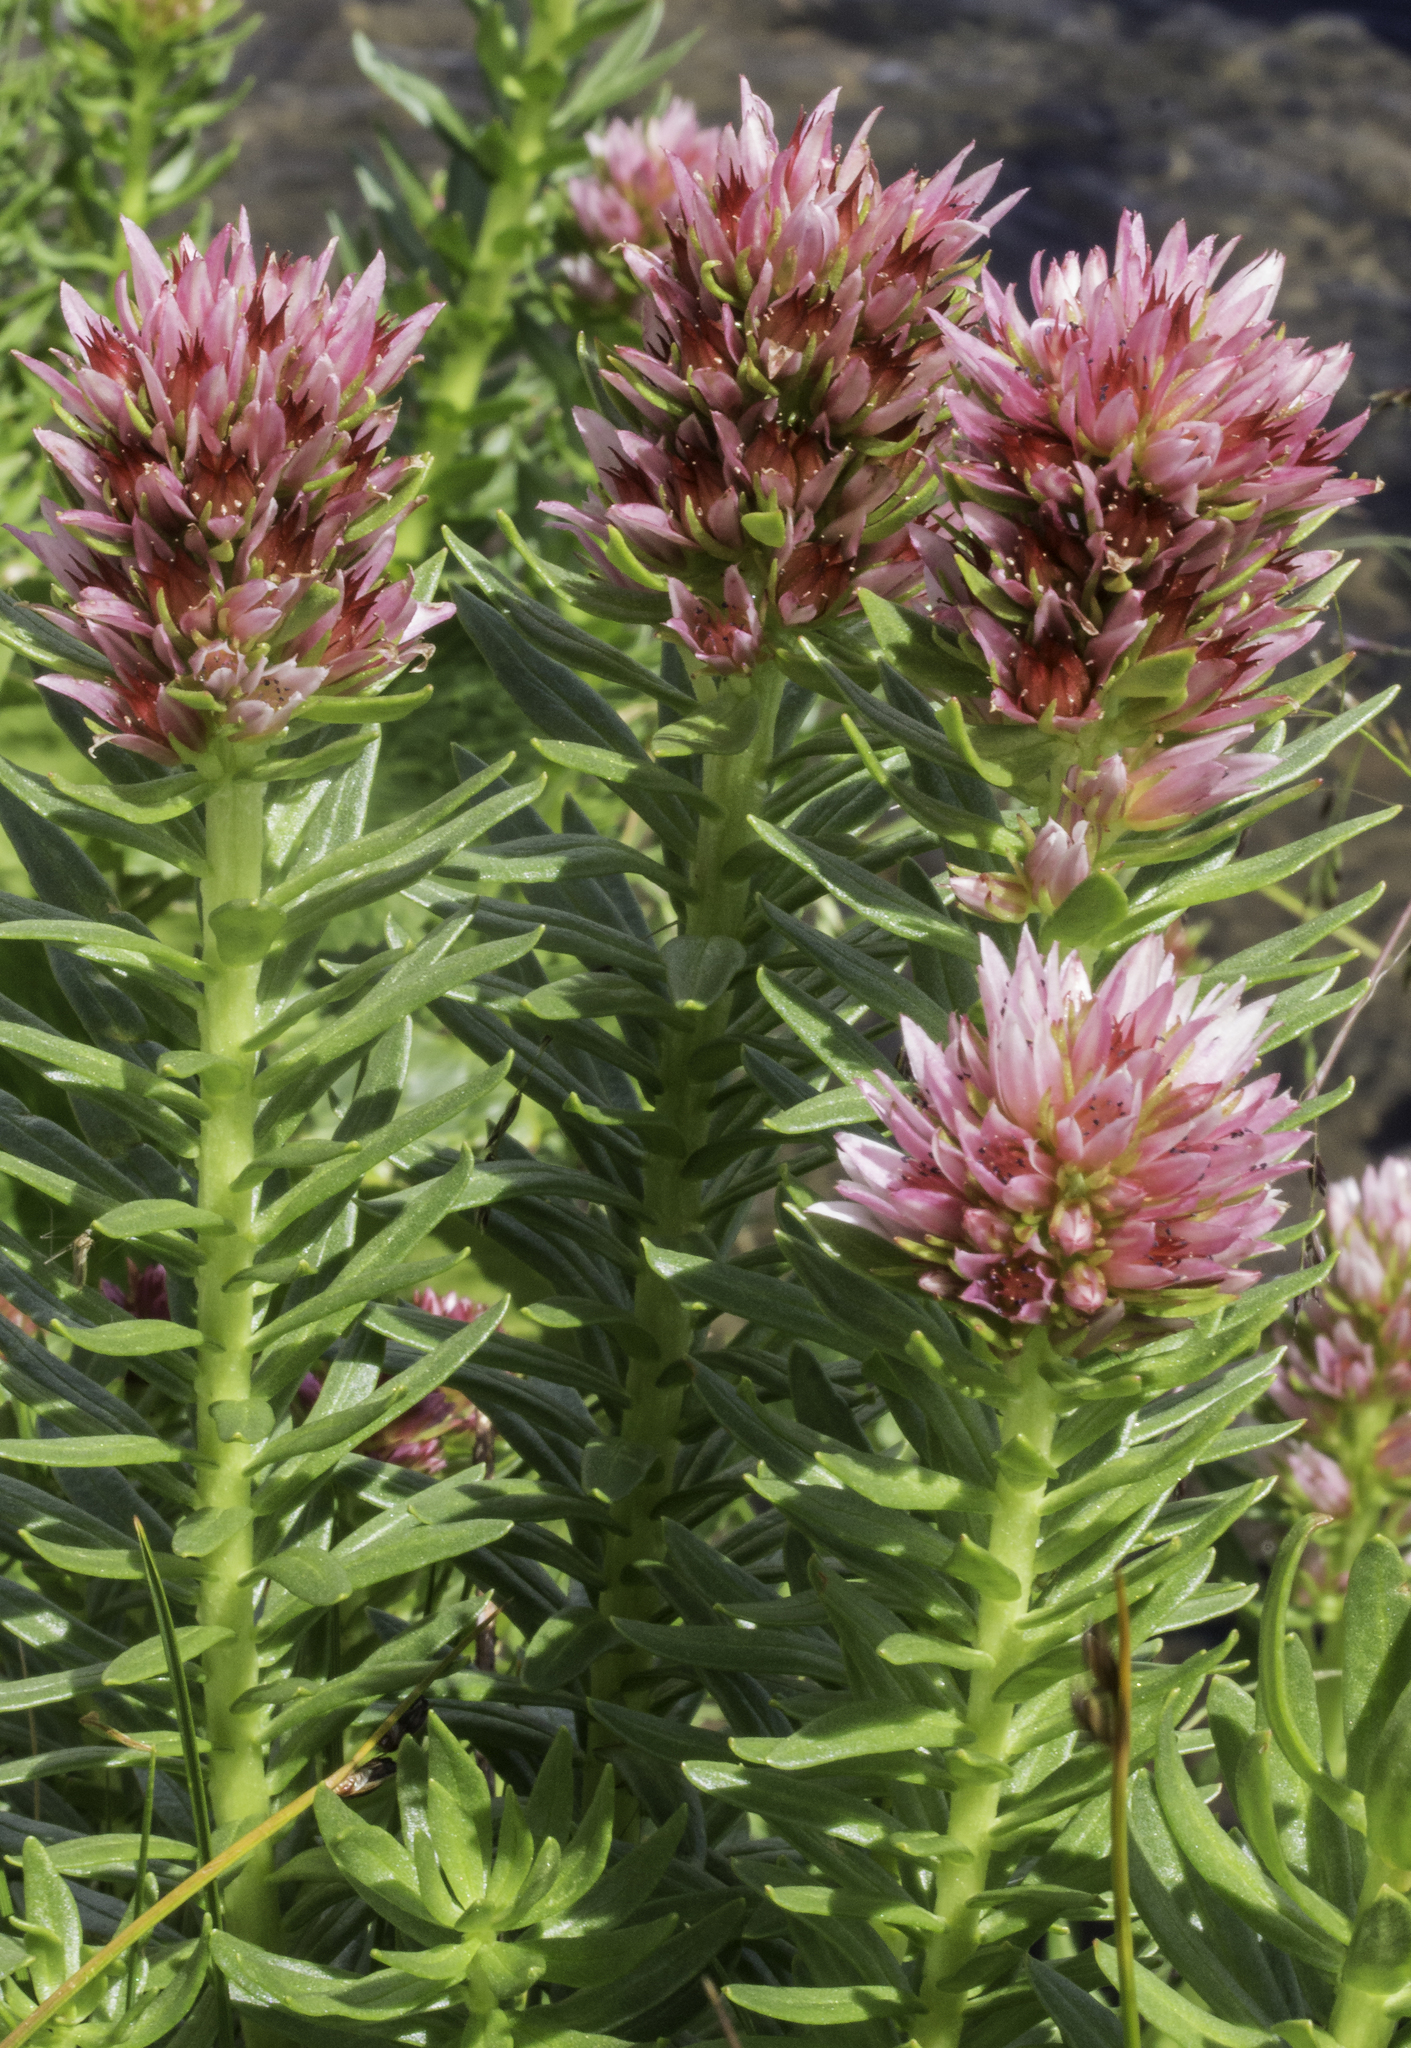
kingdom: Plantae
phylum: Tracheophyta
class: Magnoliopsida
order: Saxifragales
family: Crassulaceae
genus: Rhodiola
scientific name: Rhodiola rhodantha
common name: Red orpine
